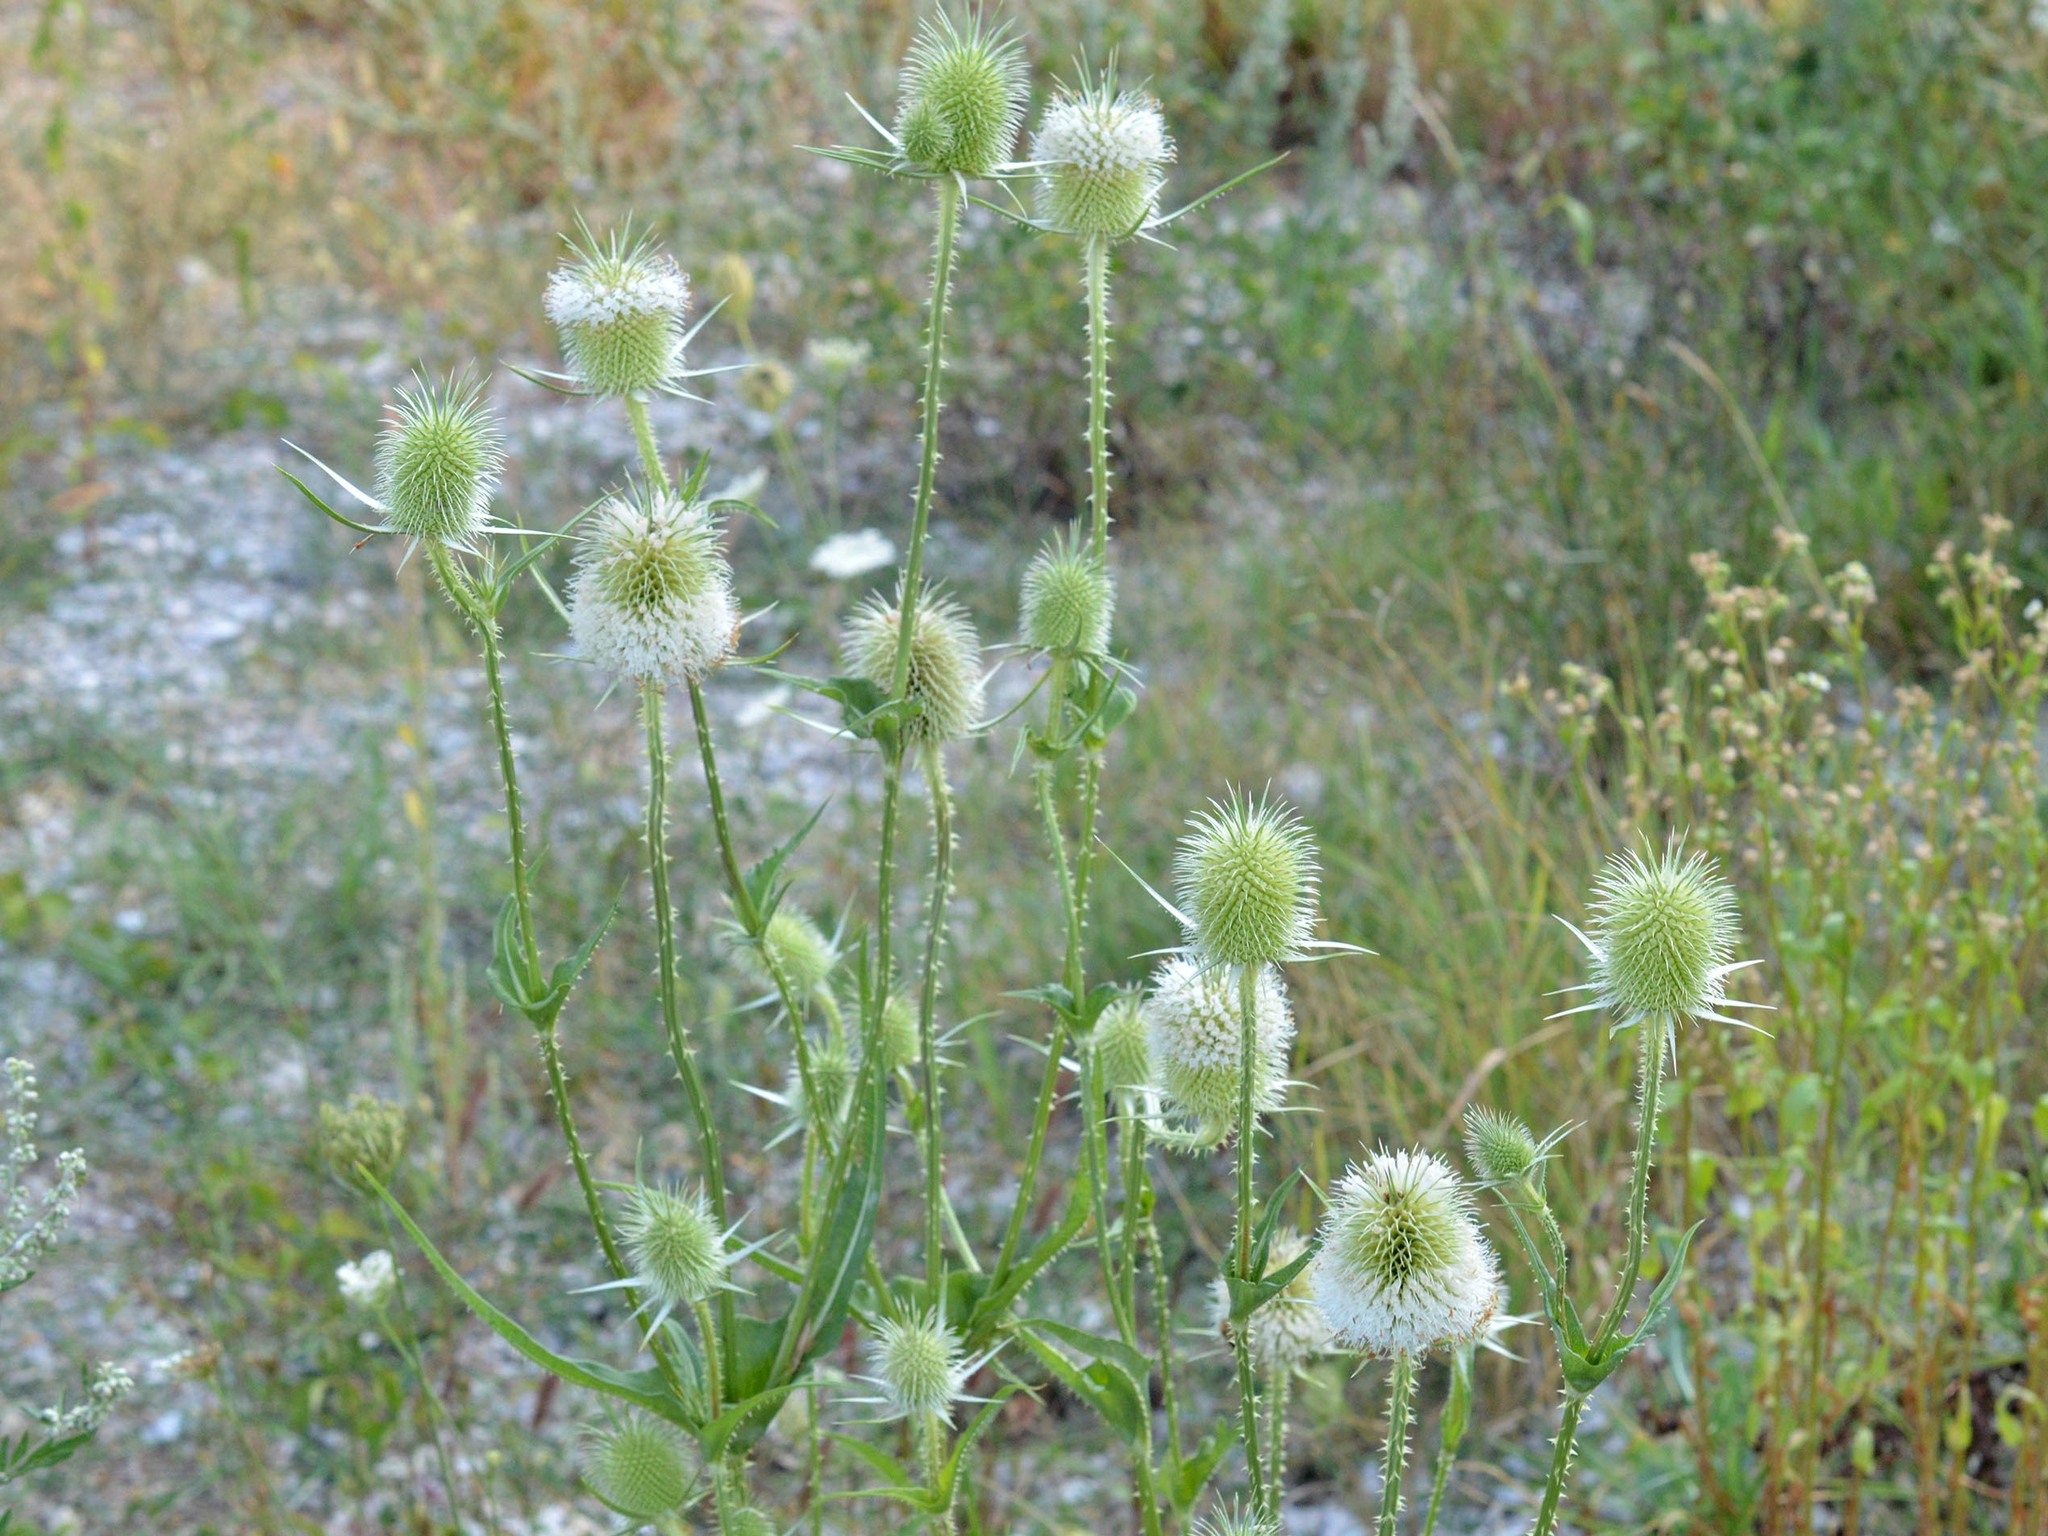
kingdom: Plantae
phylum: Tracheophyta
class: Magnoliopsida
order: Dipsacales
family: Caprifoliaceae
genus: Dipsacus
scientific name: Dipsacus laciniatus
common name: Cut-leaved teasel
